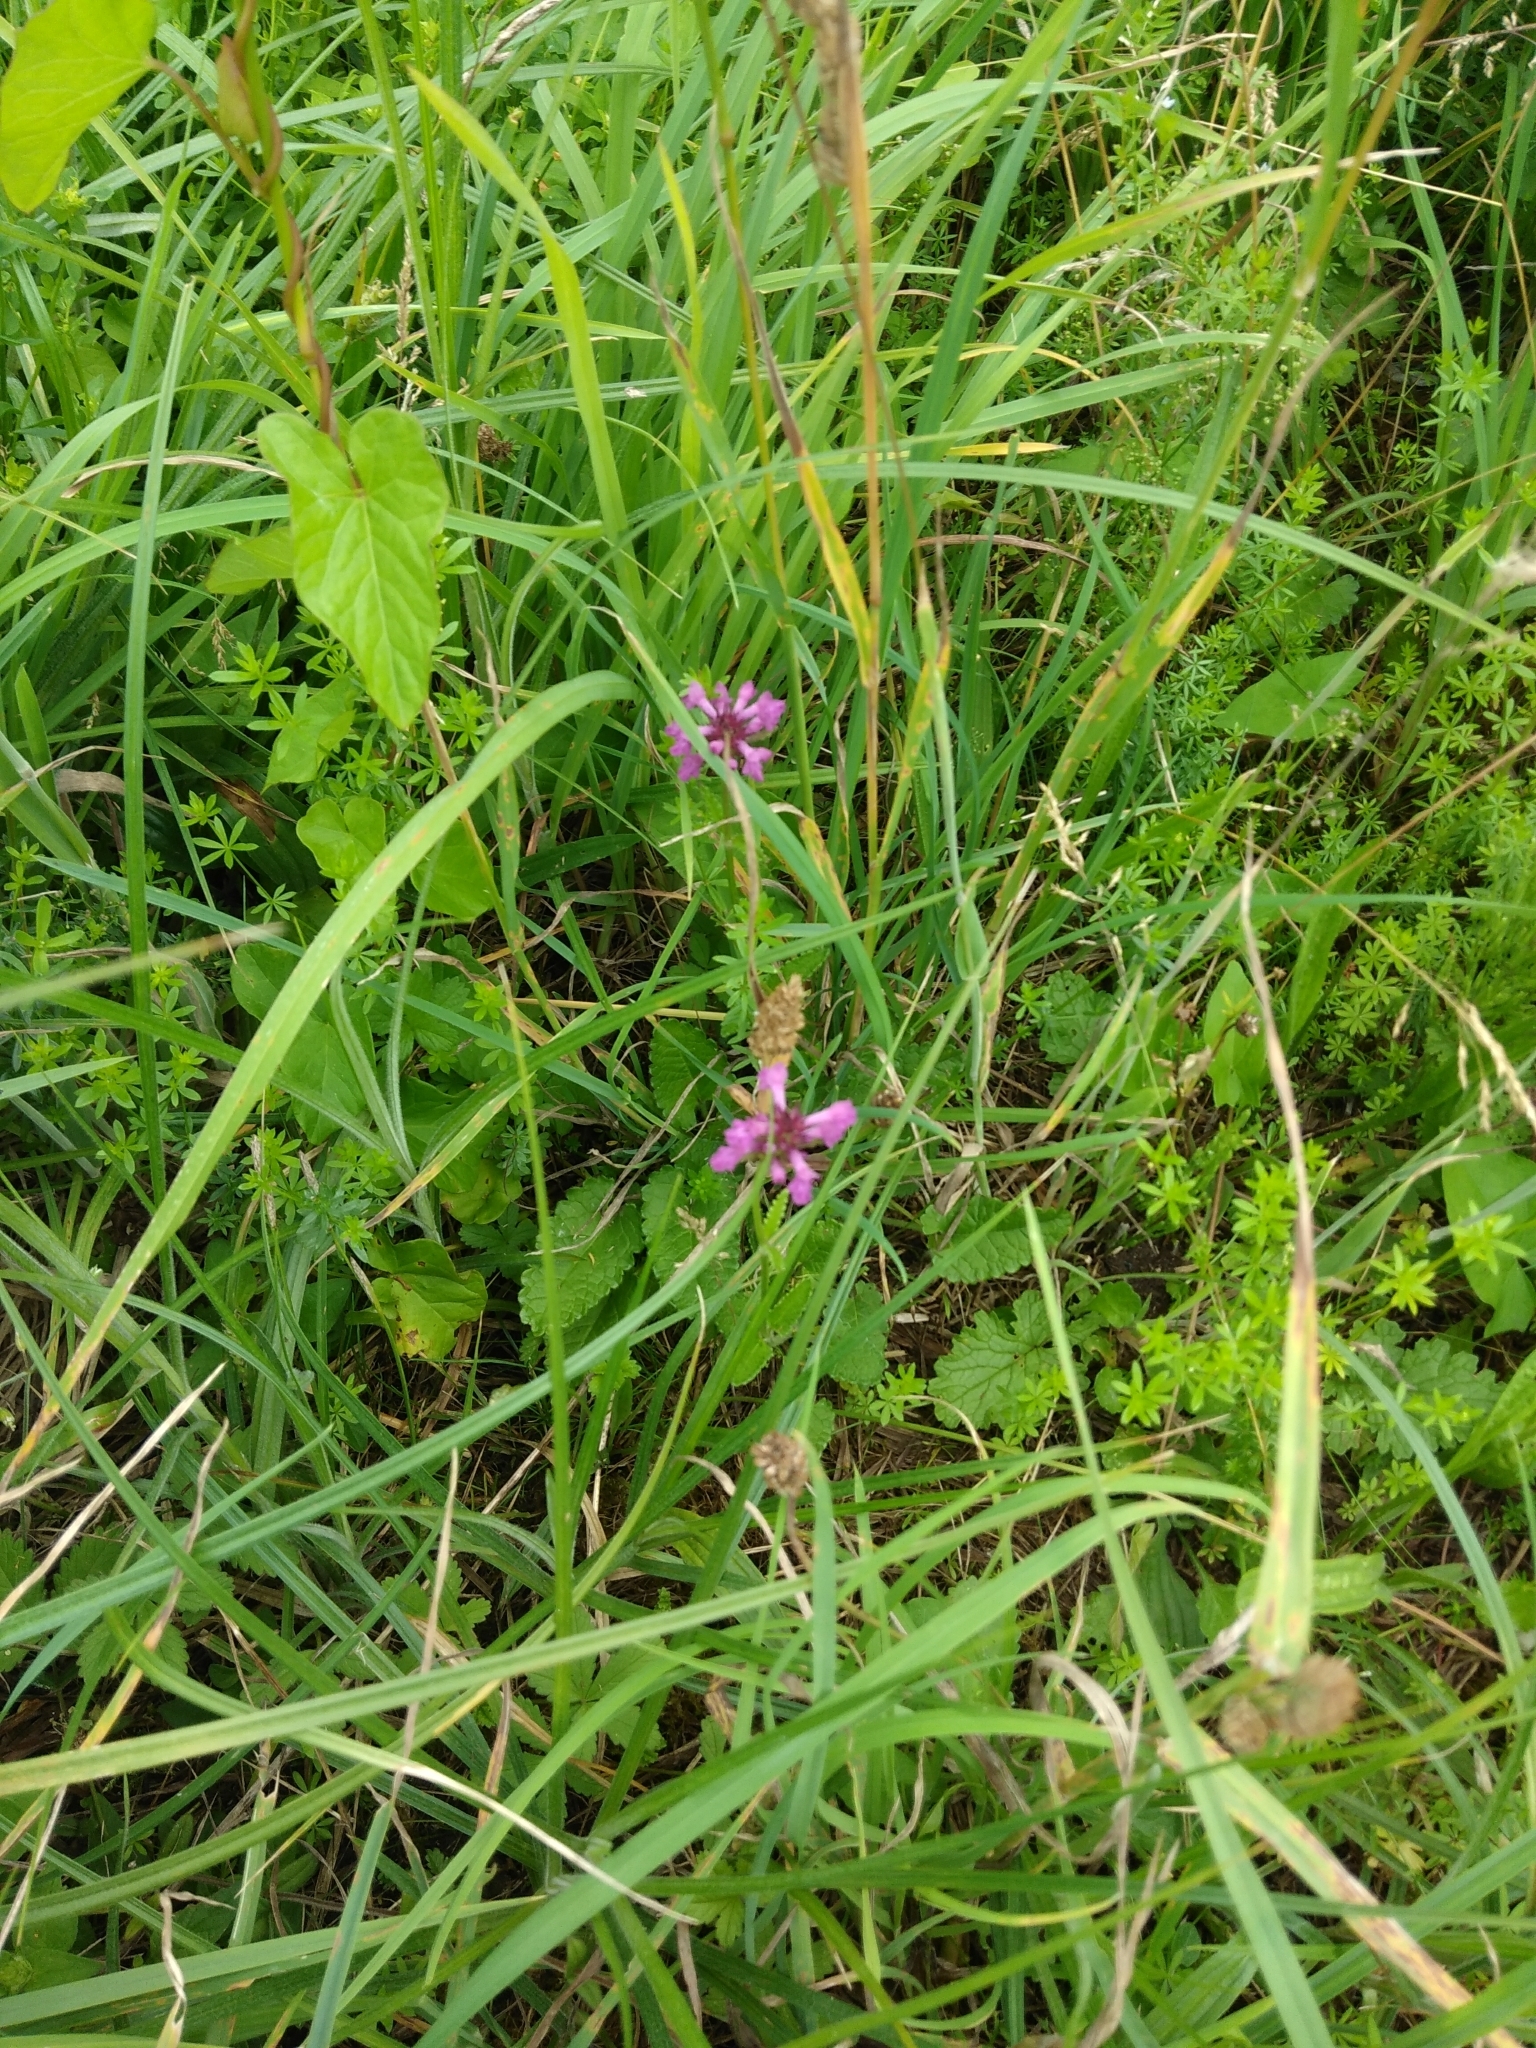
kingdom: Plantae
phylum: Tracheophyta
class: Magnoliopsida
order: Lamiales
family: Lamiaceae
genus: Betonica
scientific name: Betonica officinalis
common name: Bishop's-wort
